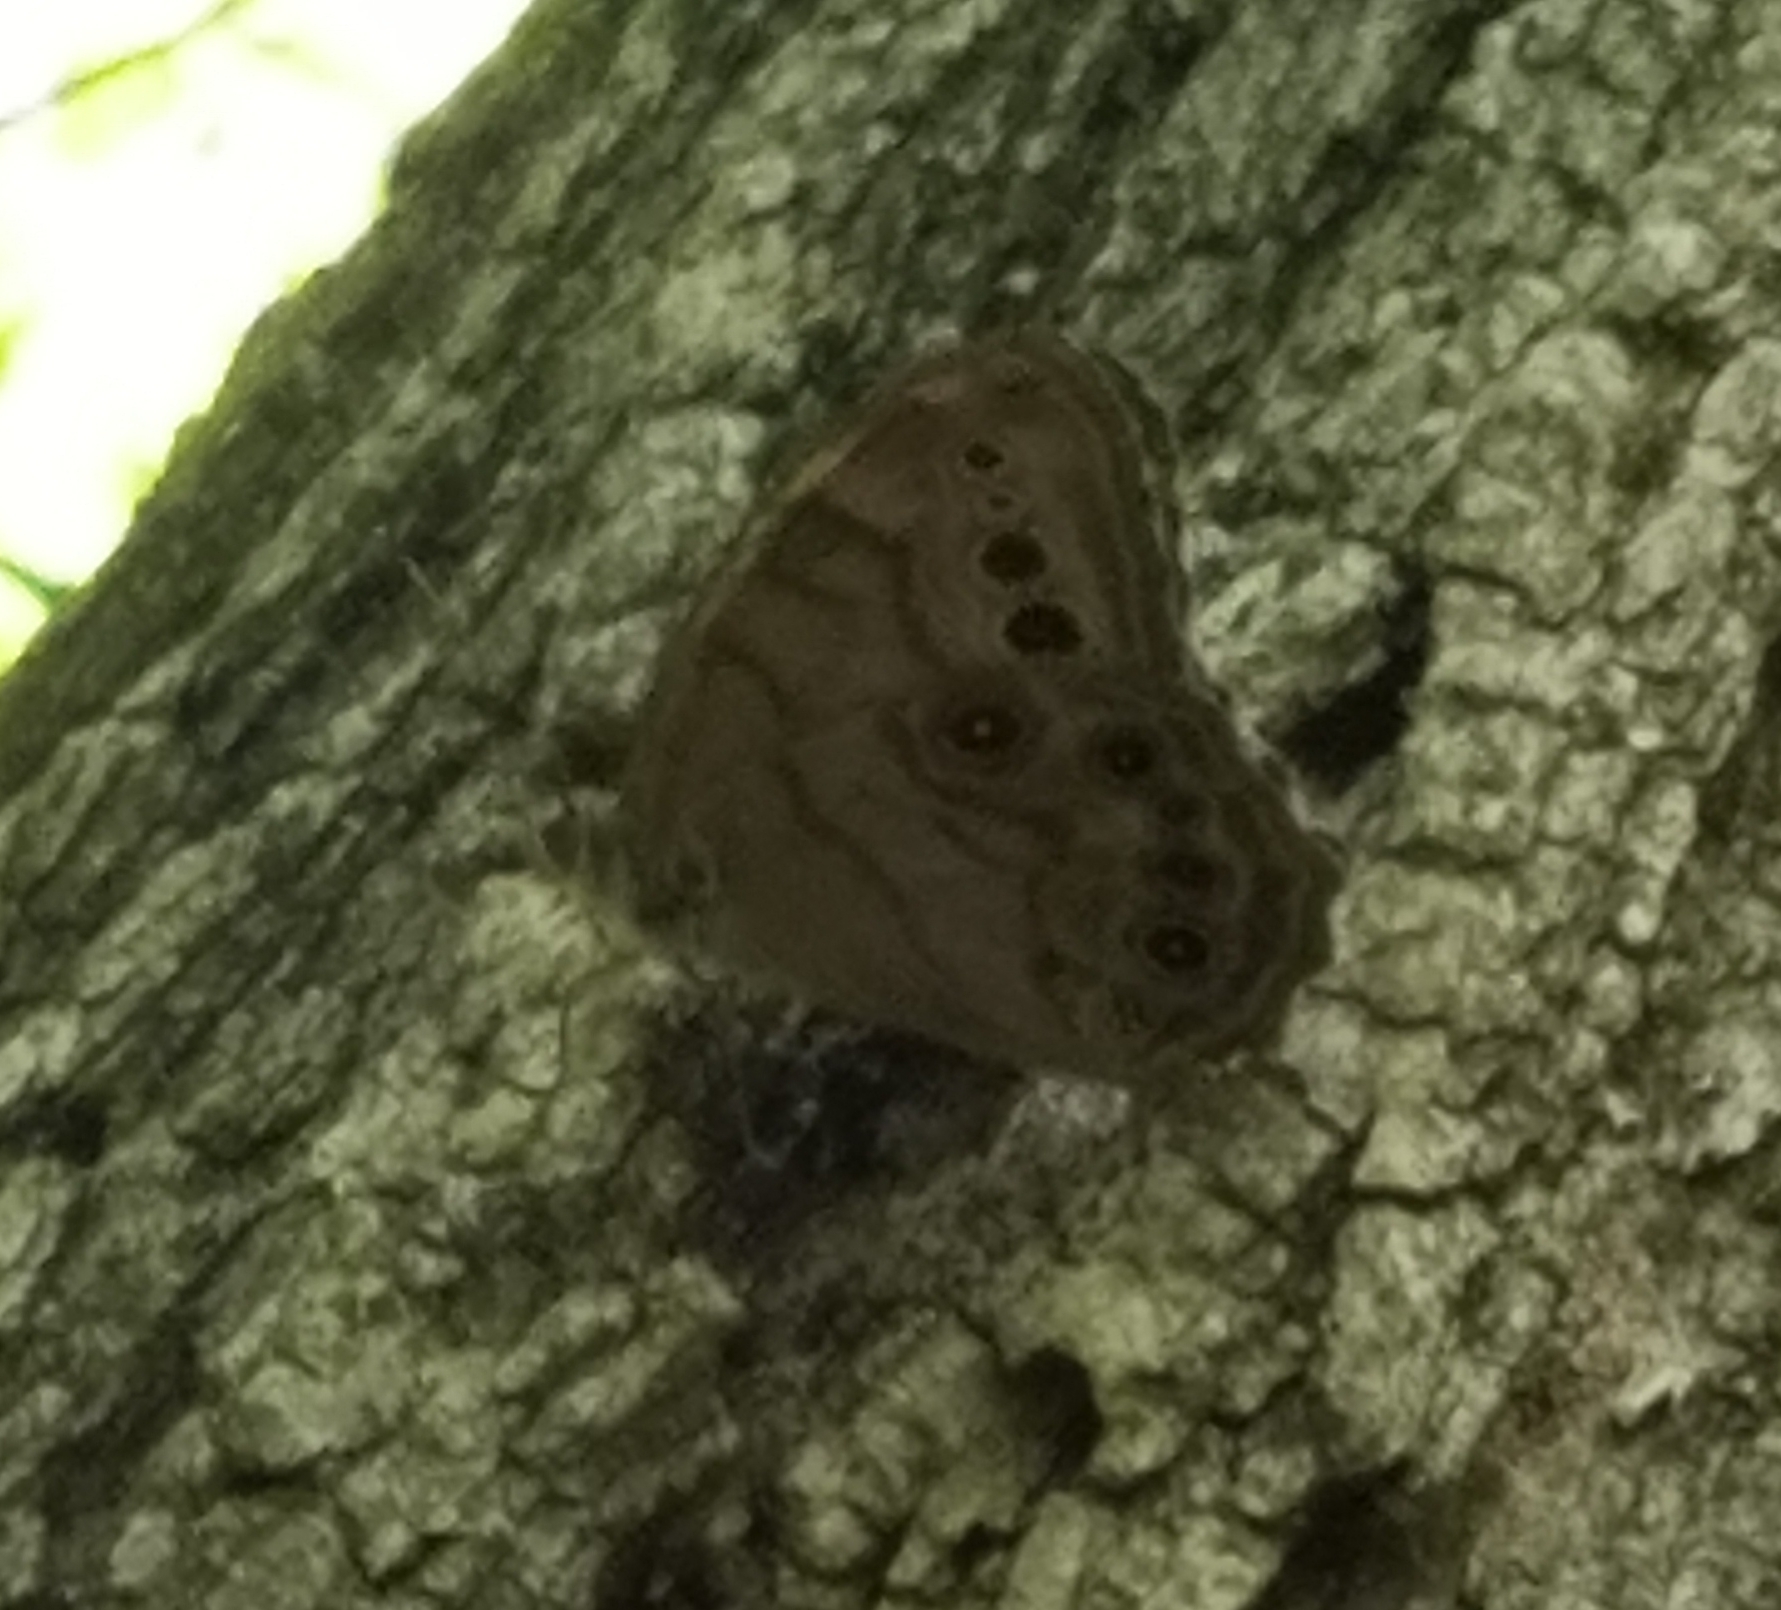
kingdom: Animalia
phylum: Arthropoda
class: Insecta
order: Lepidoptera
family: Nymphalidae
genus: Lethe
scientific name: Lethe anthedon
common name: Northern pearly-eye
